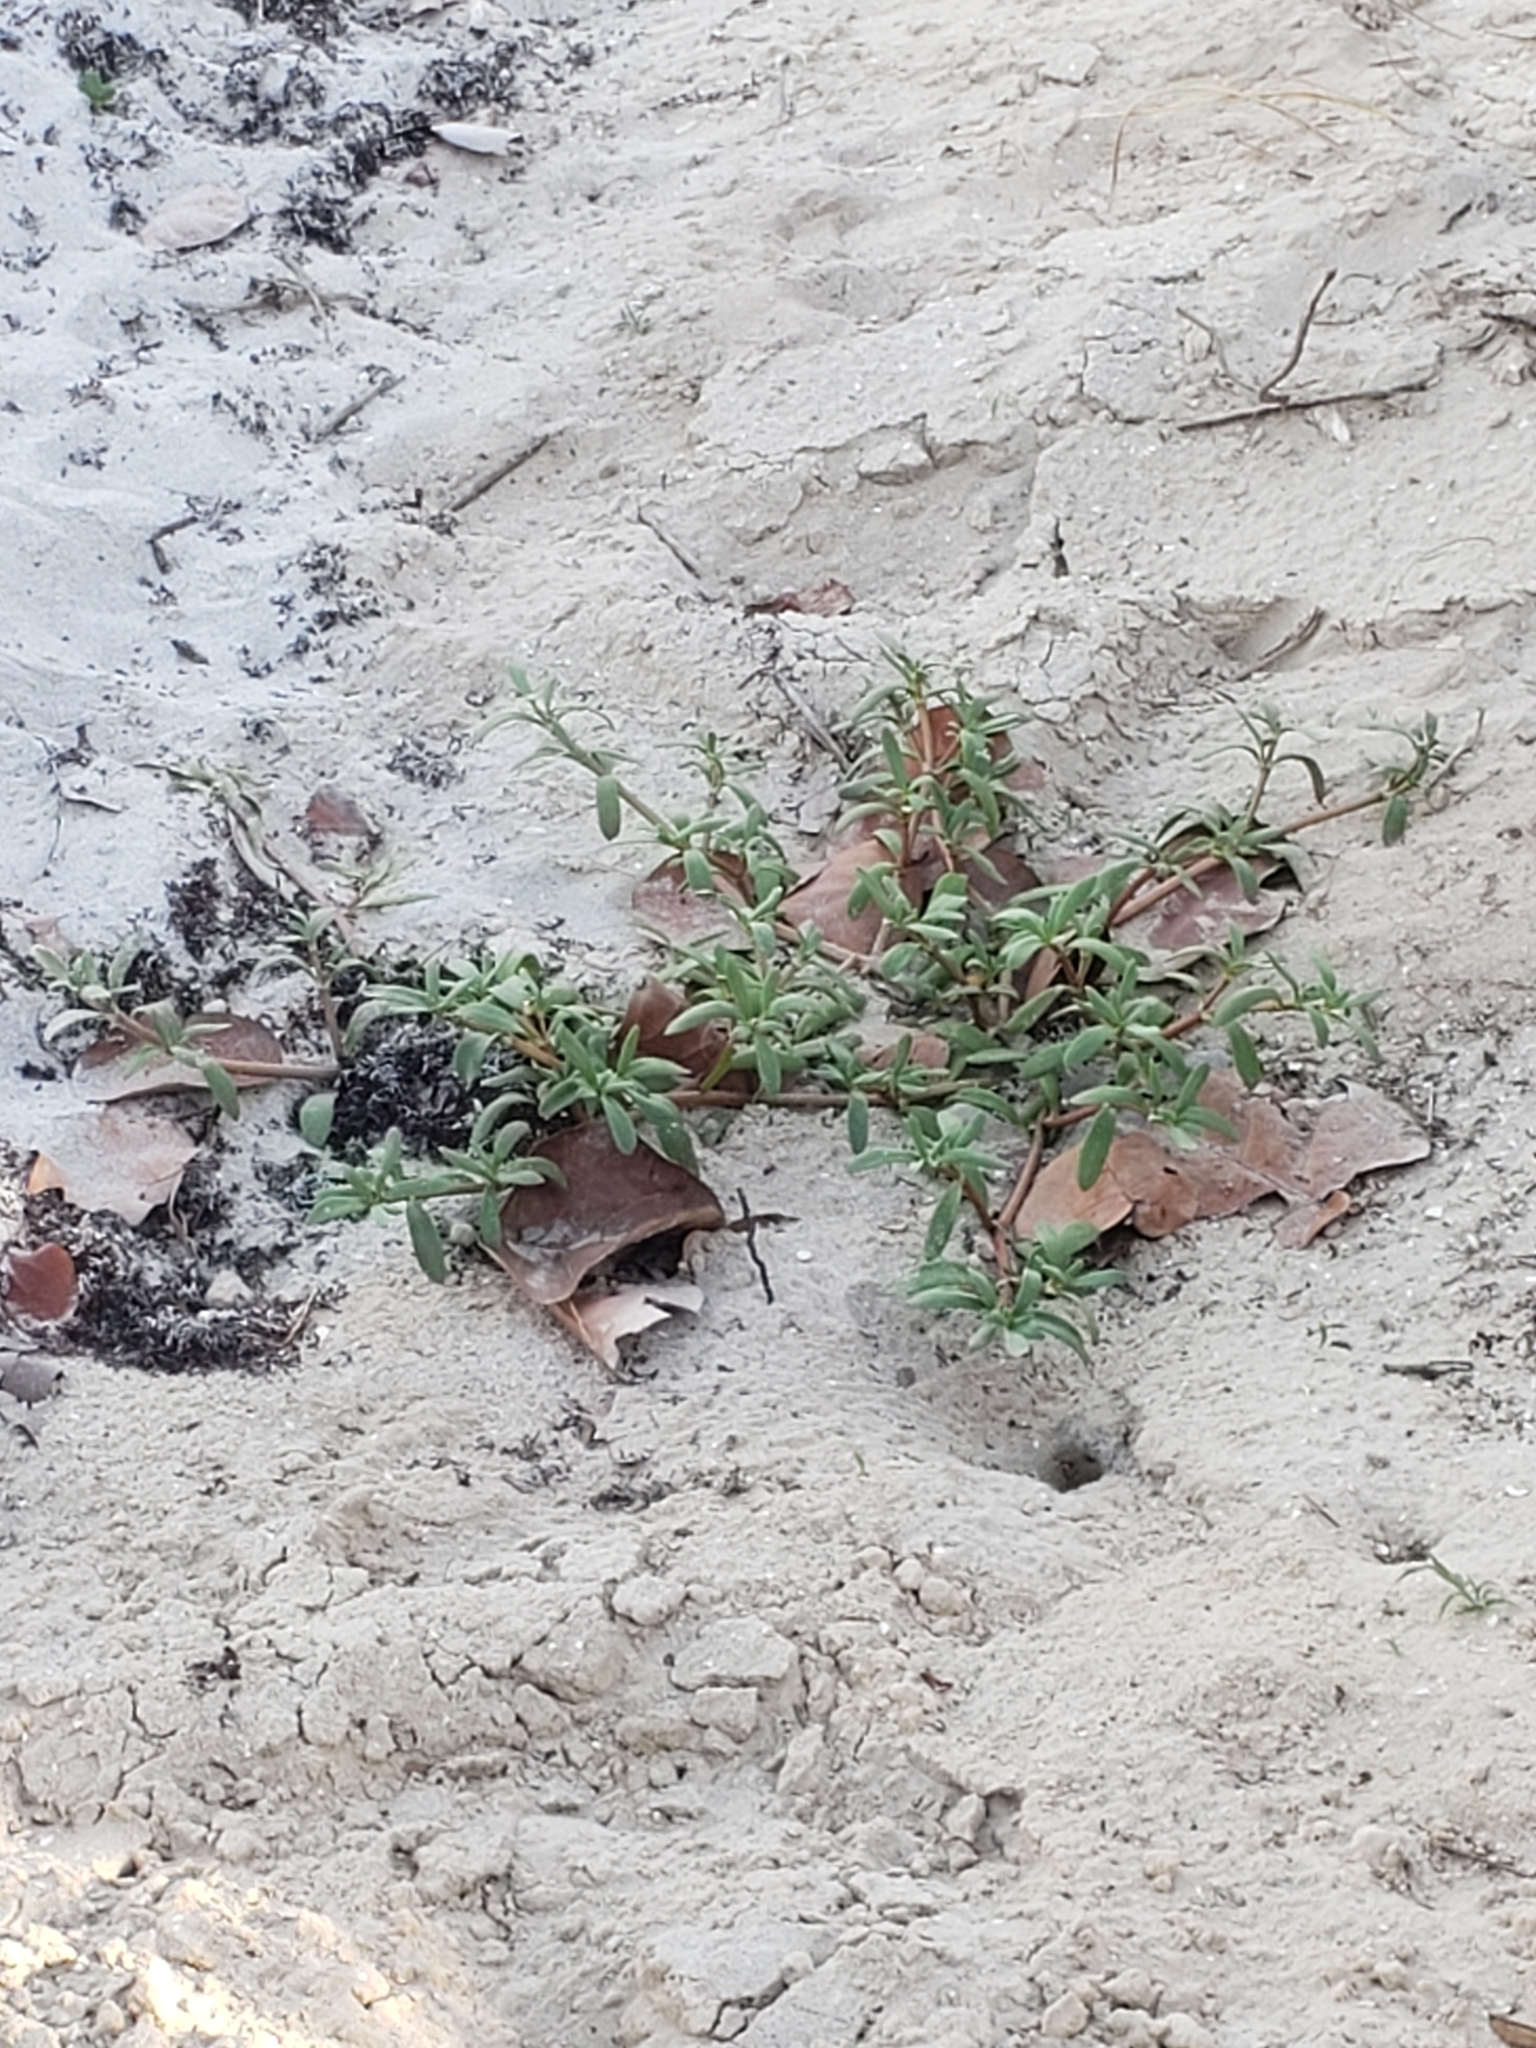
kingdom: Plantae
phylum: Tracheophyta
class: Magnoliopsida
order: Caryophyllales
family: Aizoaceae
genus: Sesuvium
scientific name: Sesuvium portulacastrum
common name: Sea-purslane
